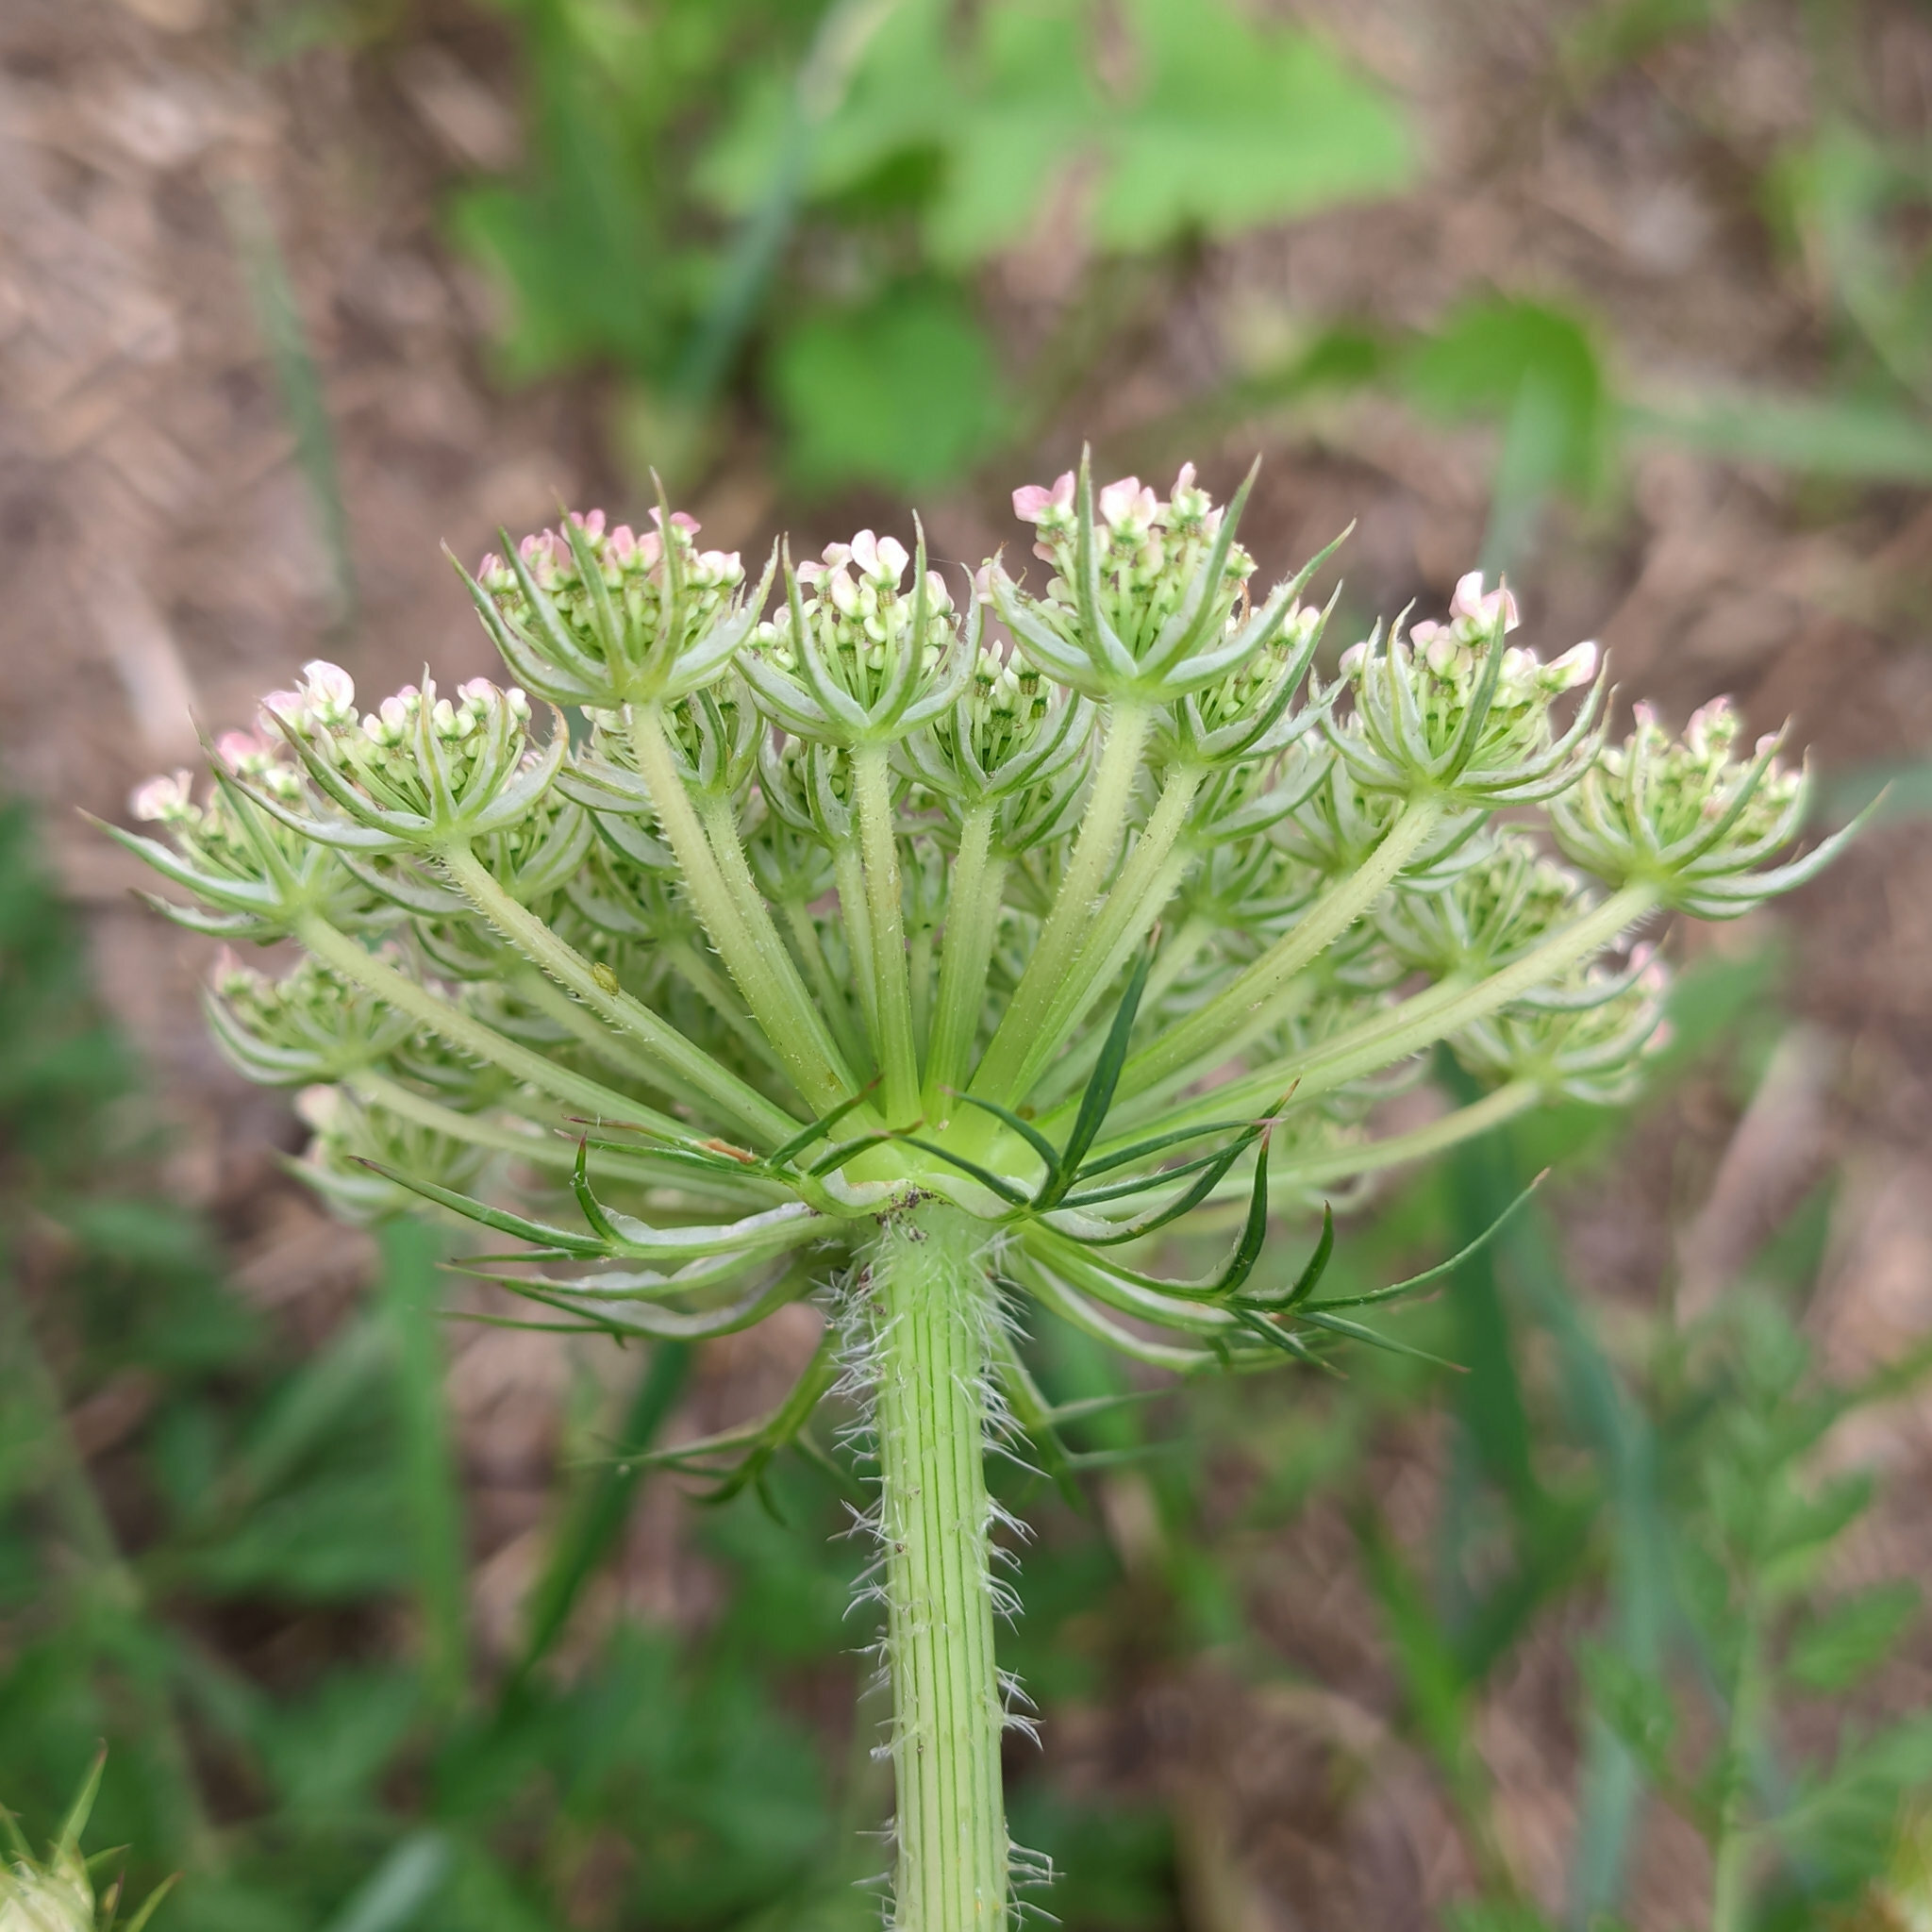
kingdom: Plantae
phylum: Tracheophyta
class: Magnoliopsida
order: Apiales
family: Apiaceae
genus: Daucus
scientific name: Daucus carota
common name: Wild carrot
